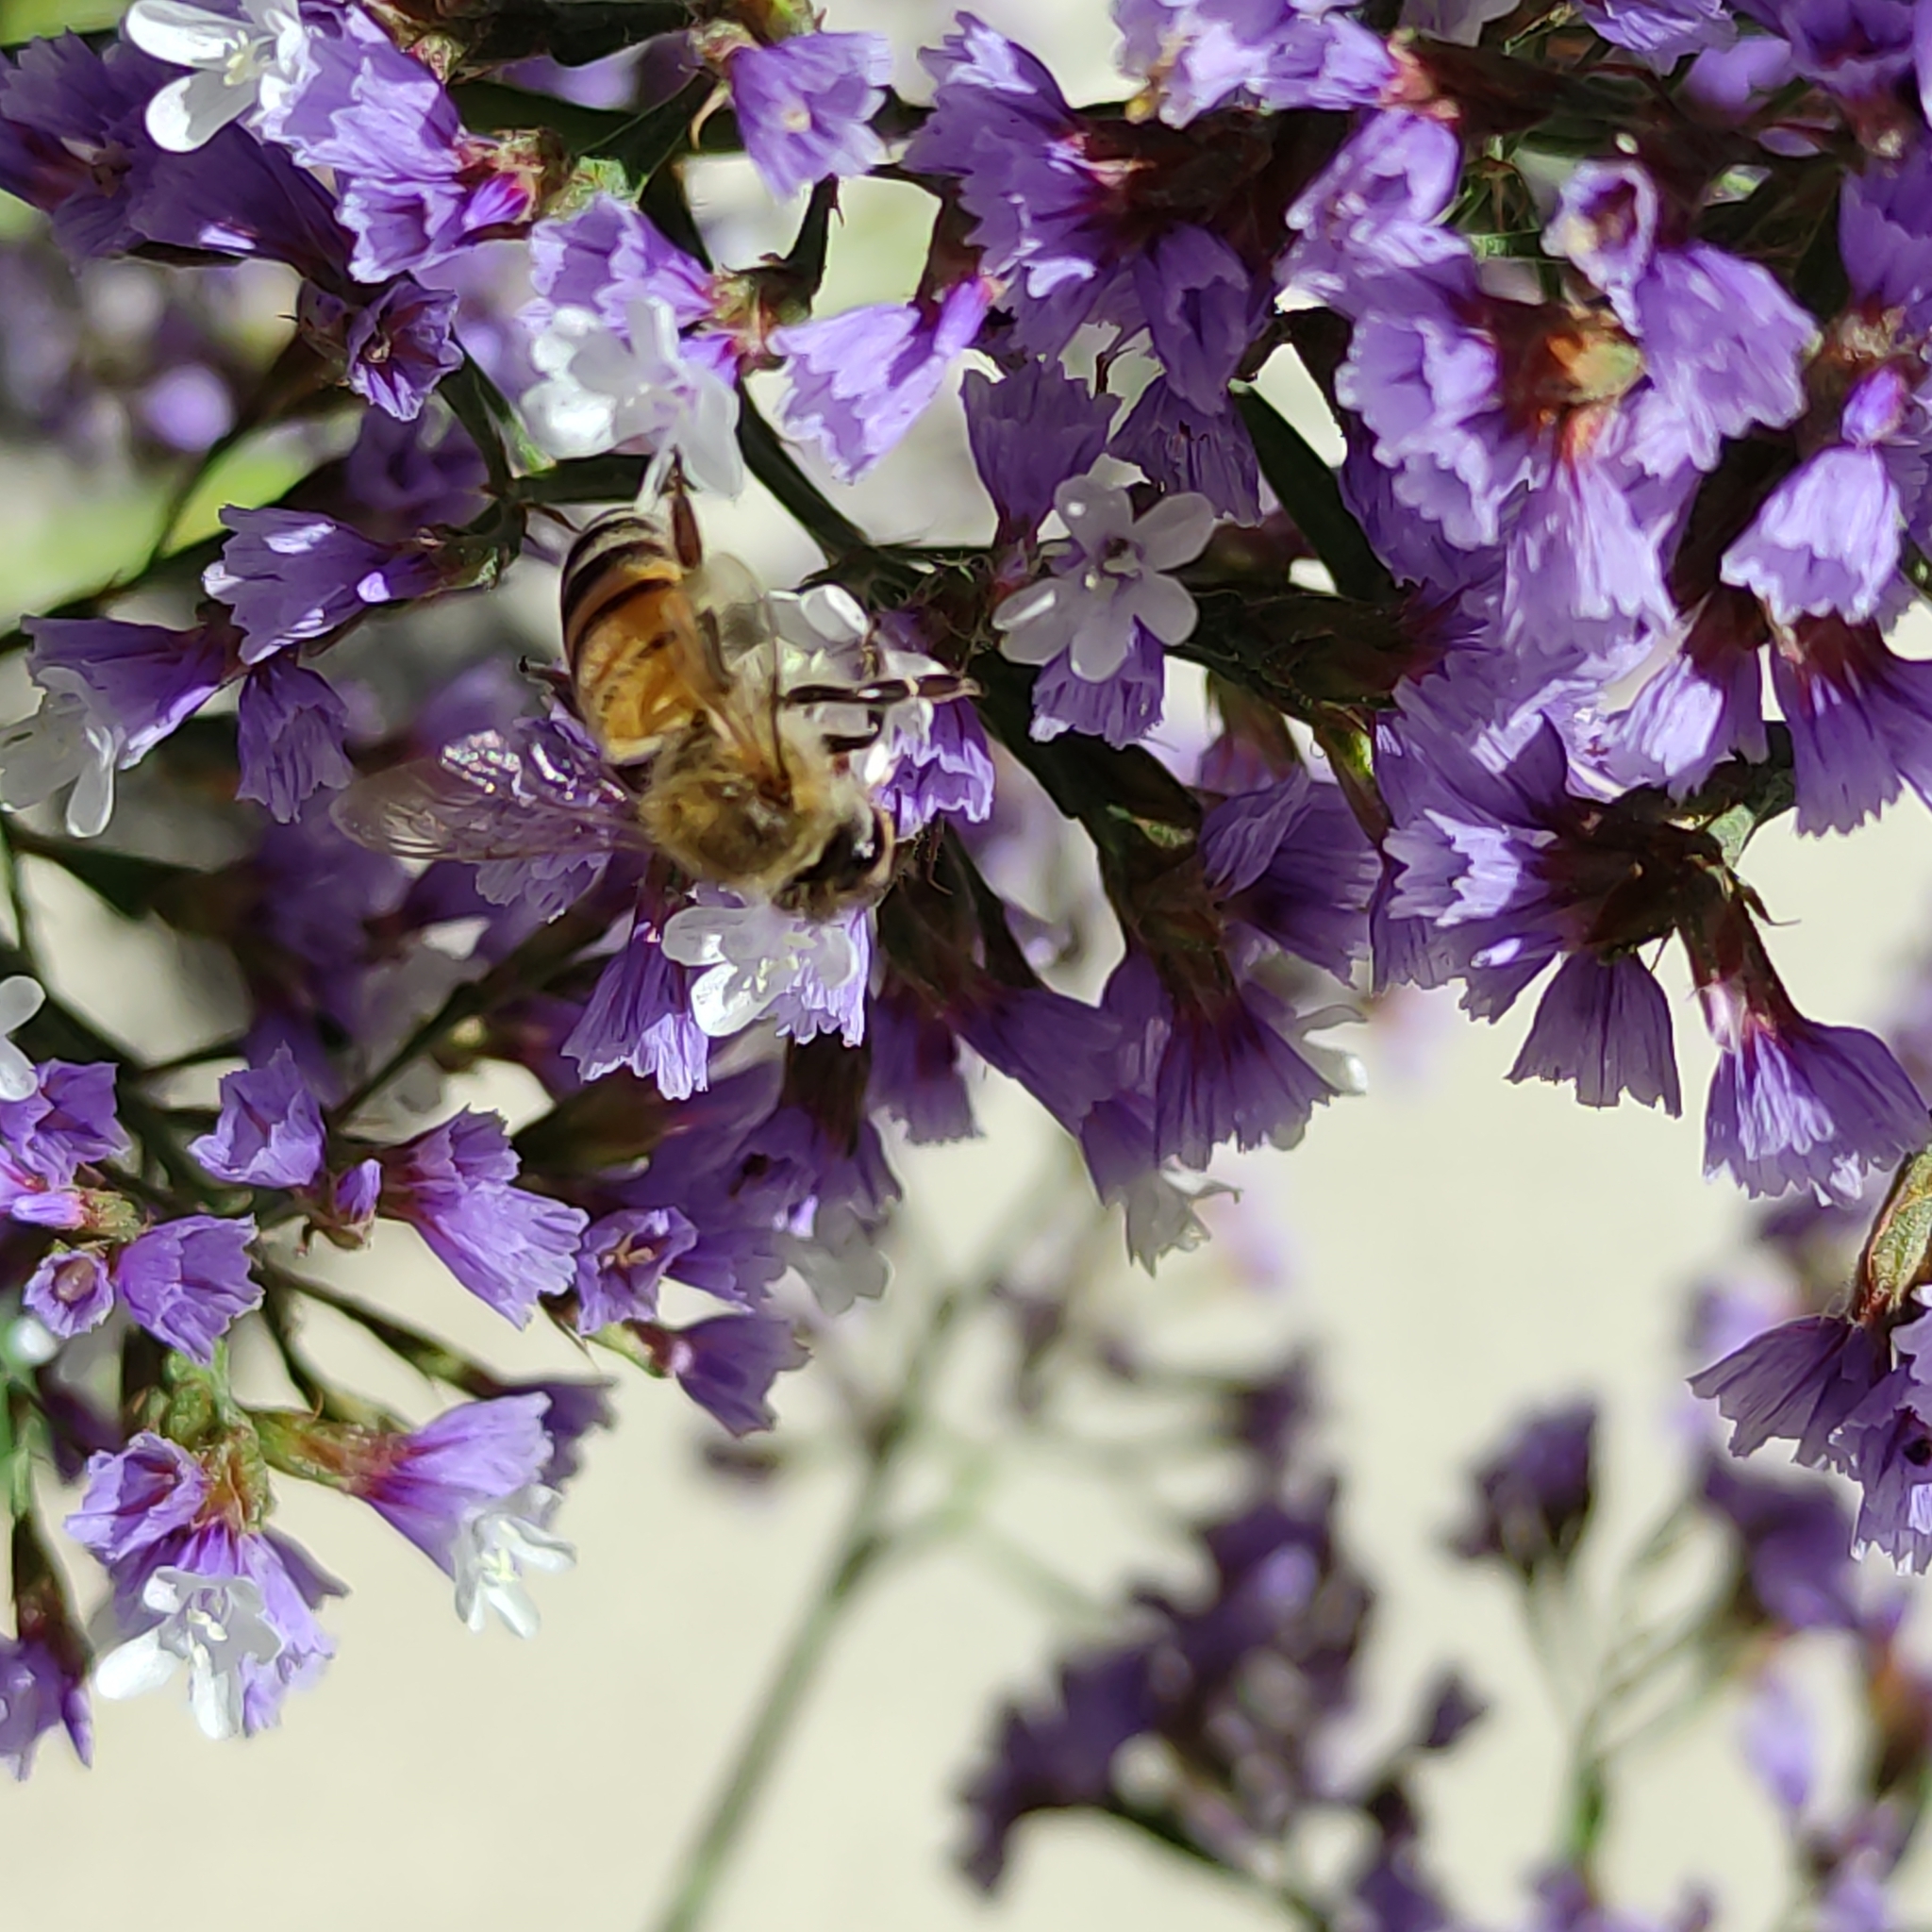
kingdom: Animalia
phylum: Arthropoda
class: Insecta
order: Hymenoptera
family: Apidae
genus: Apis
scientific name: Apis mellifera
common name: Honey bee
